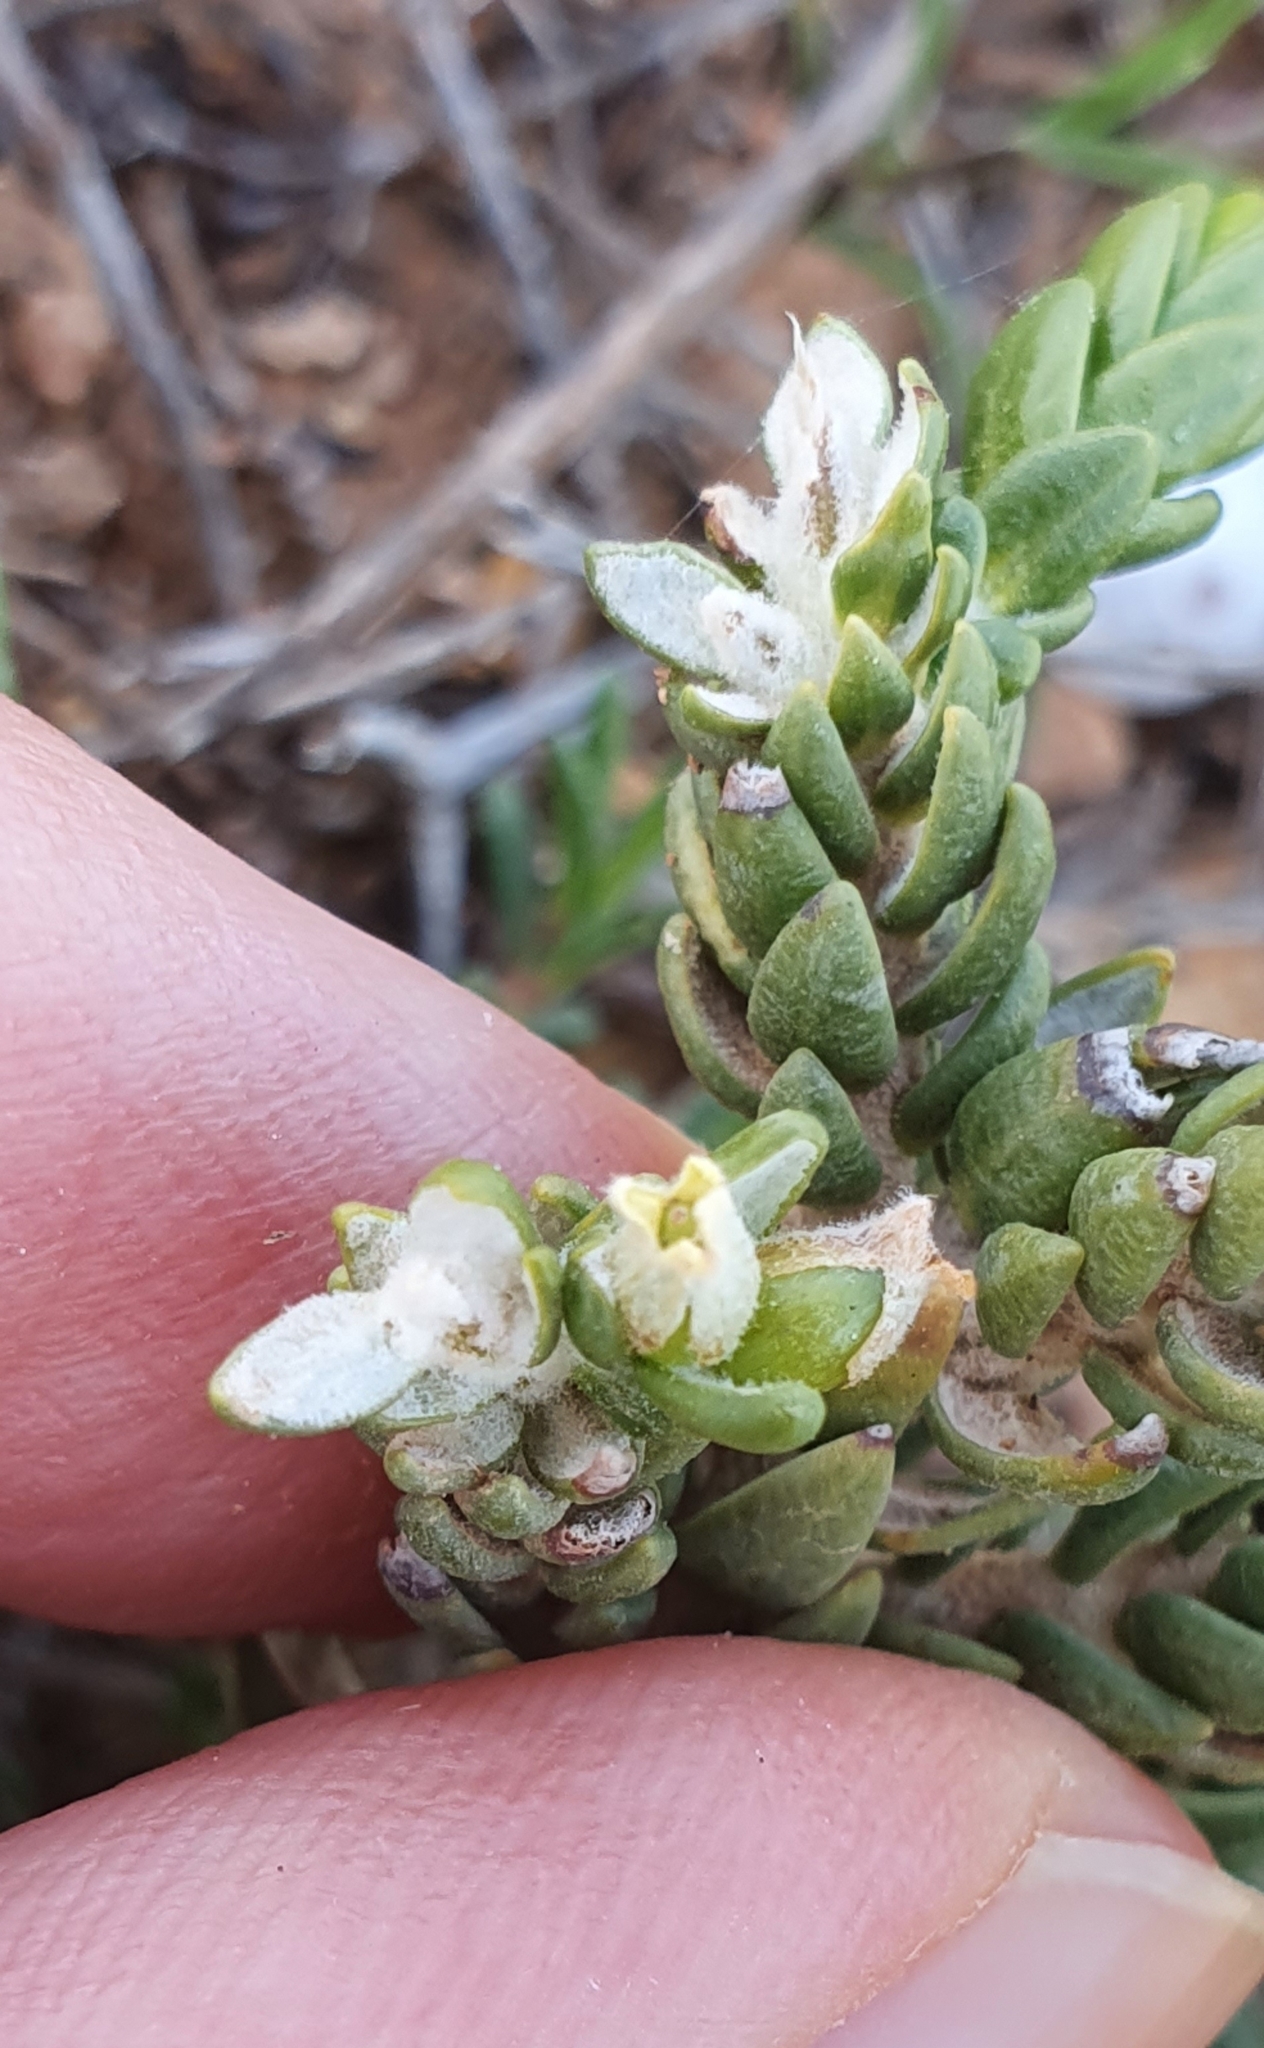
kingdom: Plantae
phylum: Tracheophyta
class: Magnoliopsida
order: Malvales
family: Thymelaeaceae
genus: Thymelaea
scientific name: Thymelaea hirsuta
